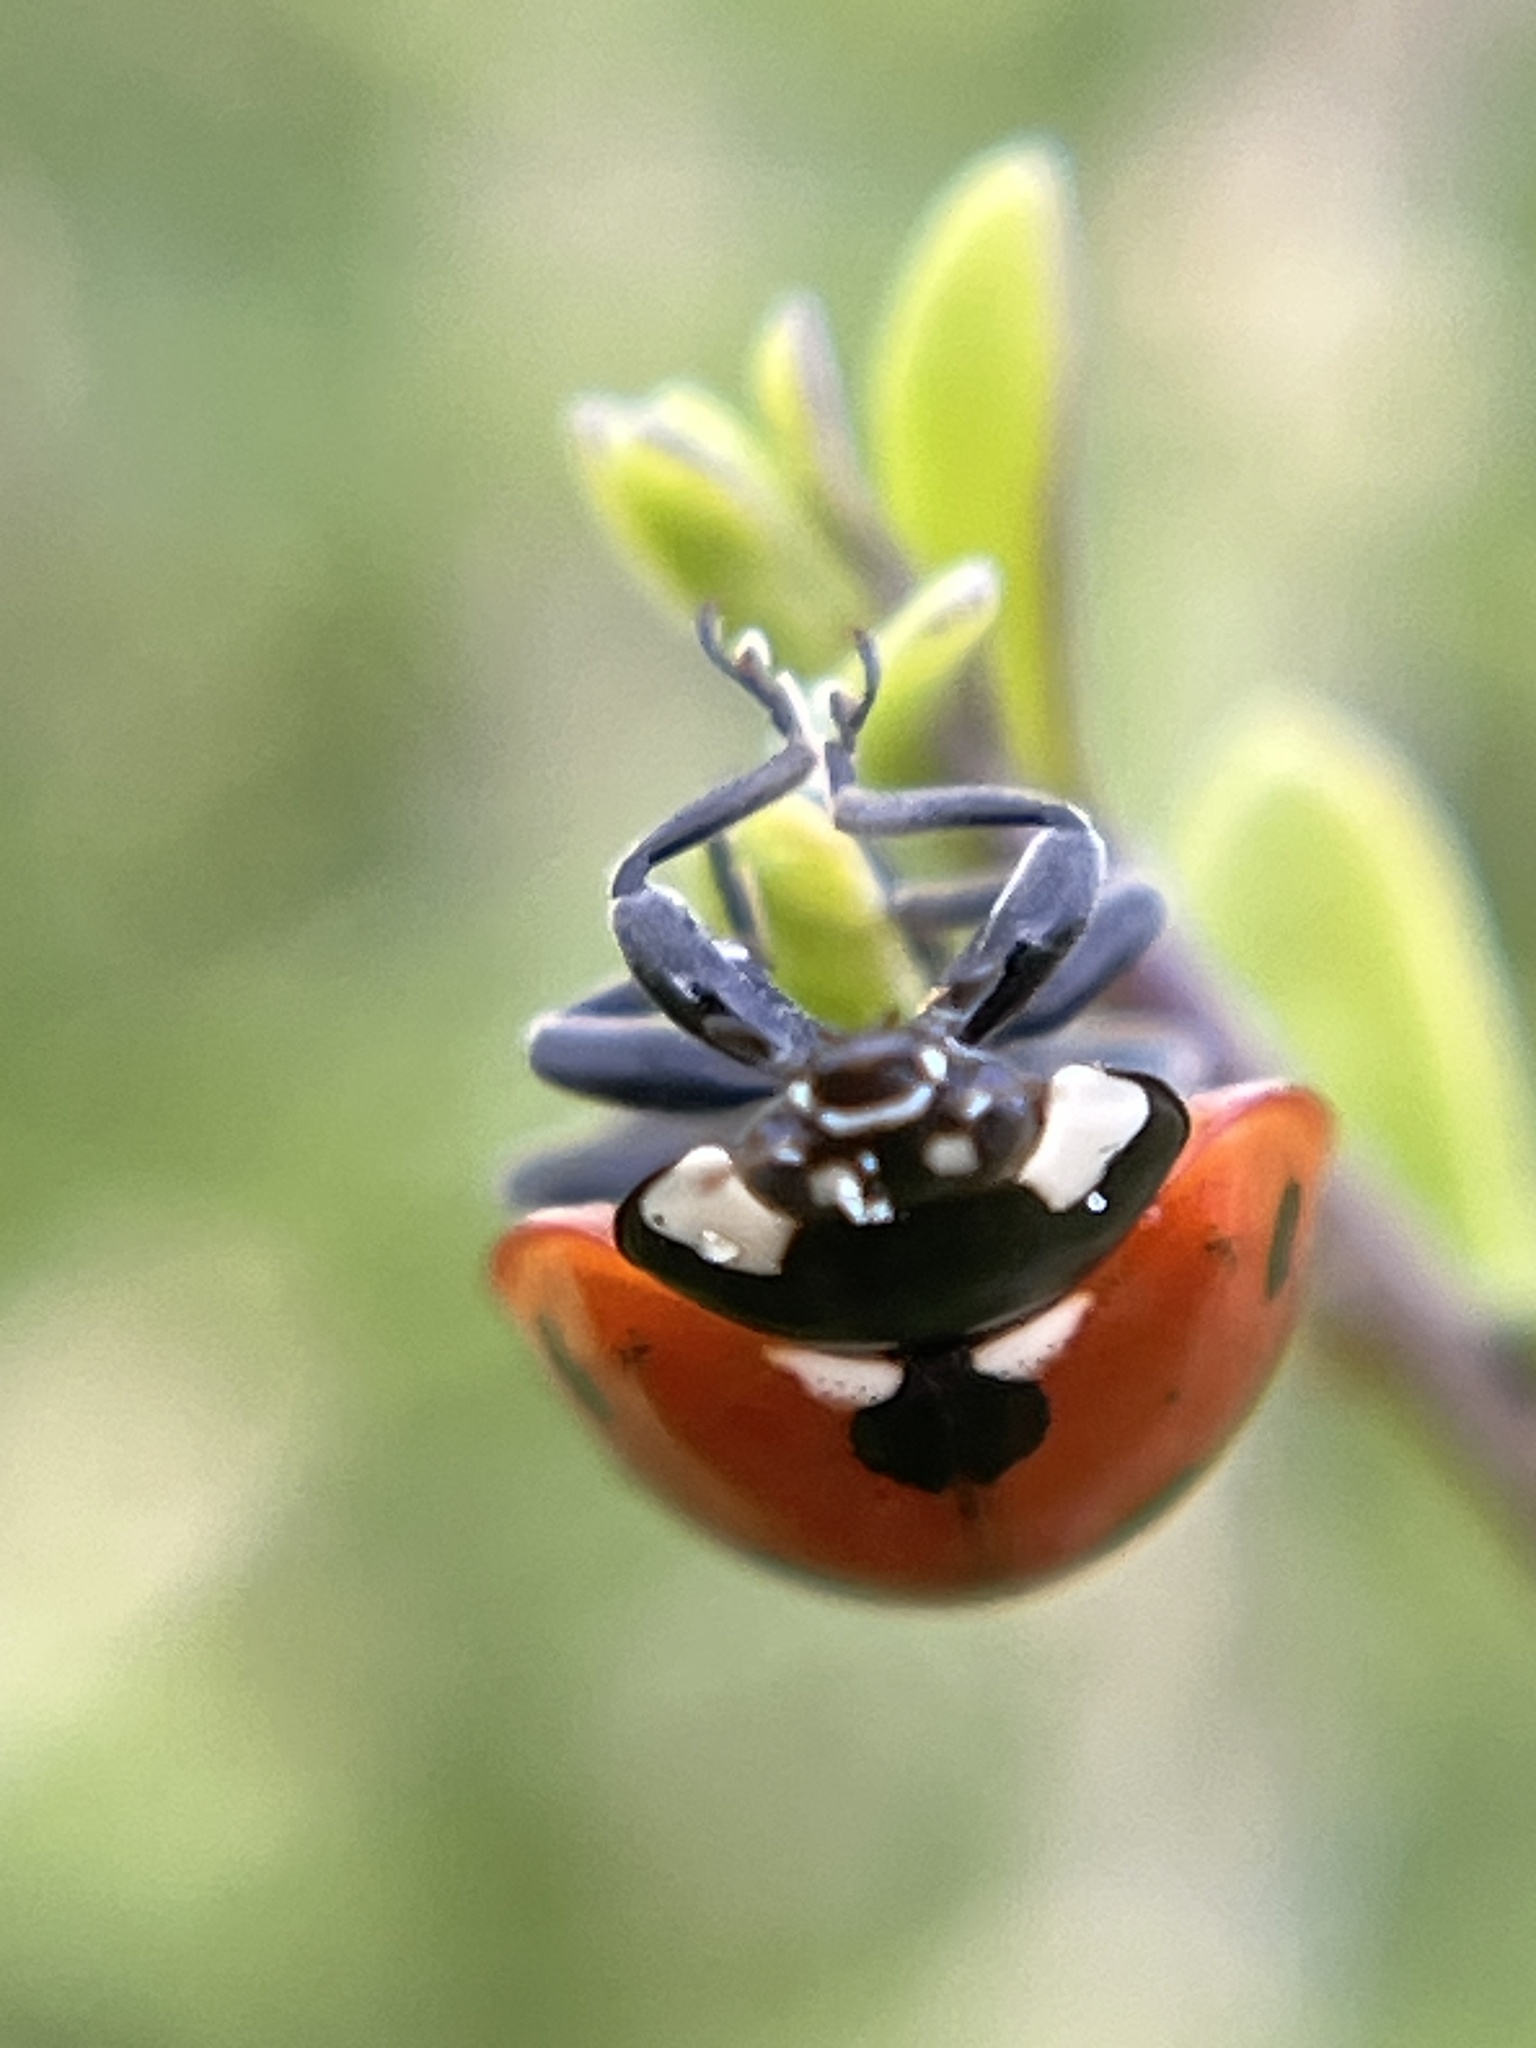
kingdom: Animalia
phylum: Arthropoda
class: Insecta
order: Coleoptera
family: Coccinellidae
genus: Coccinella
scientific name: Coccinella septempunctata
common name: Sevenspotted lady beetle
